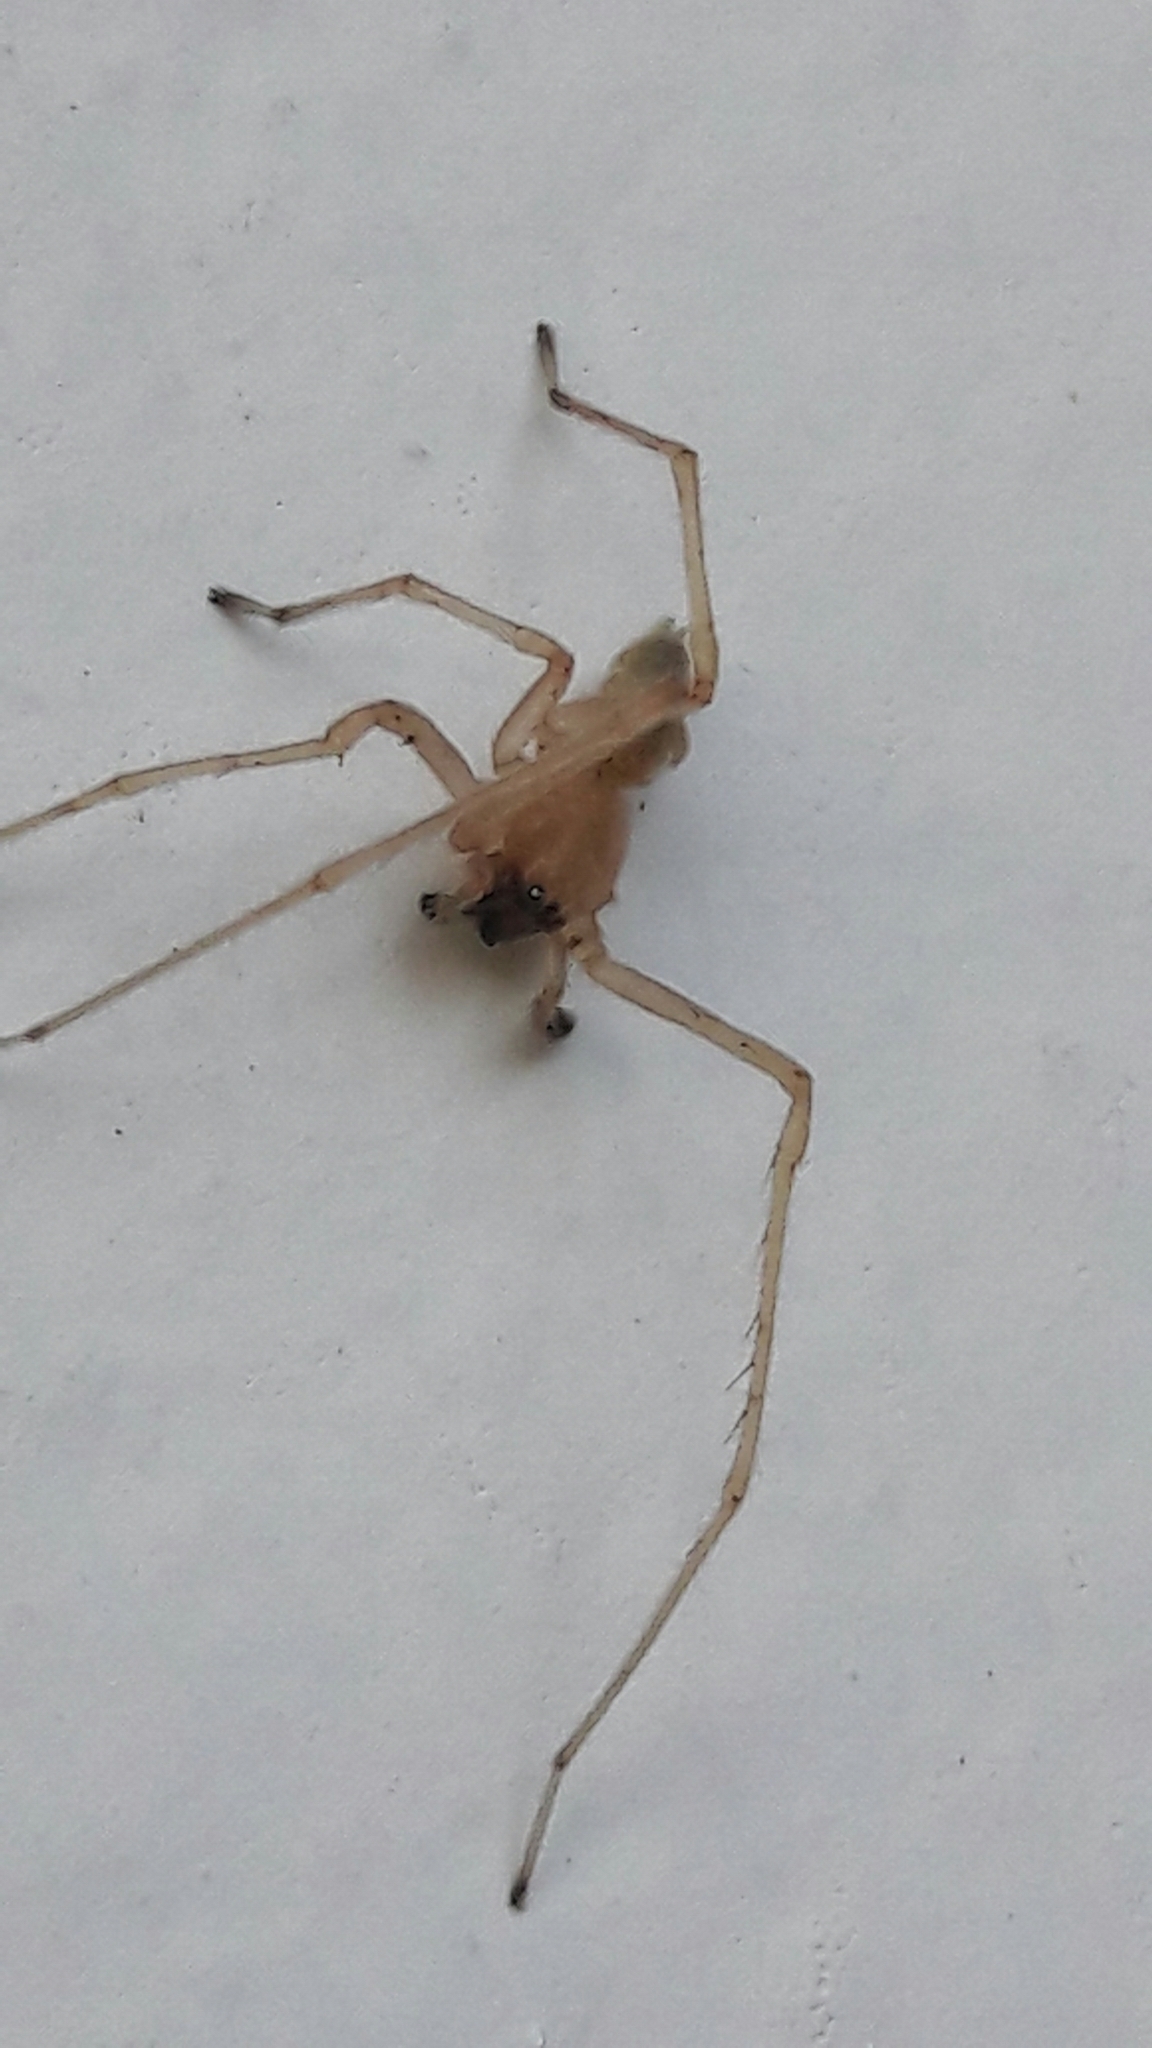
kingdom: Animalia
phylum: Arthropoda
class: Arachnida
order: Araneae
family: Cheiracanthiidae
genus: Cheiracanthium
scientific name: Cheiracanthium inclusum
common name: Long-legged sac spiders
